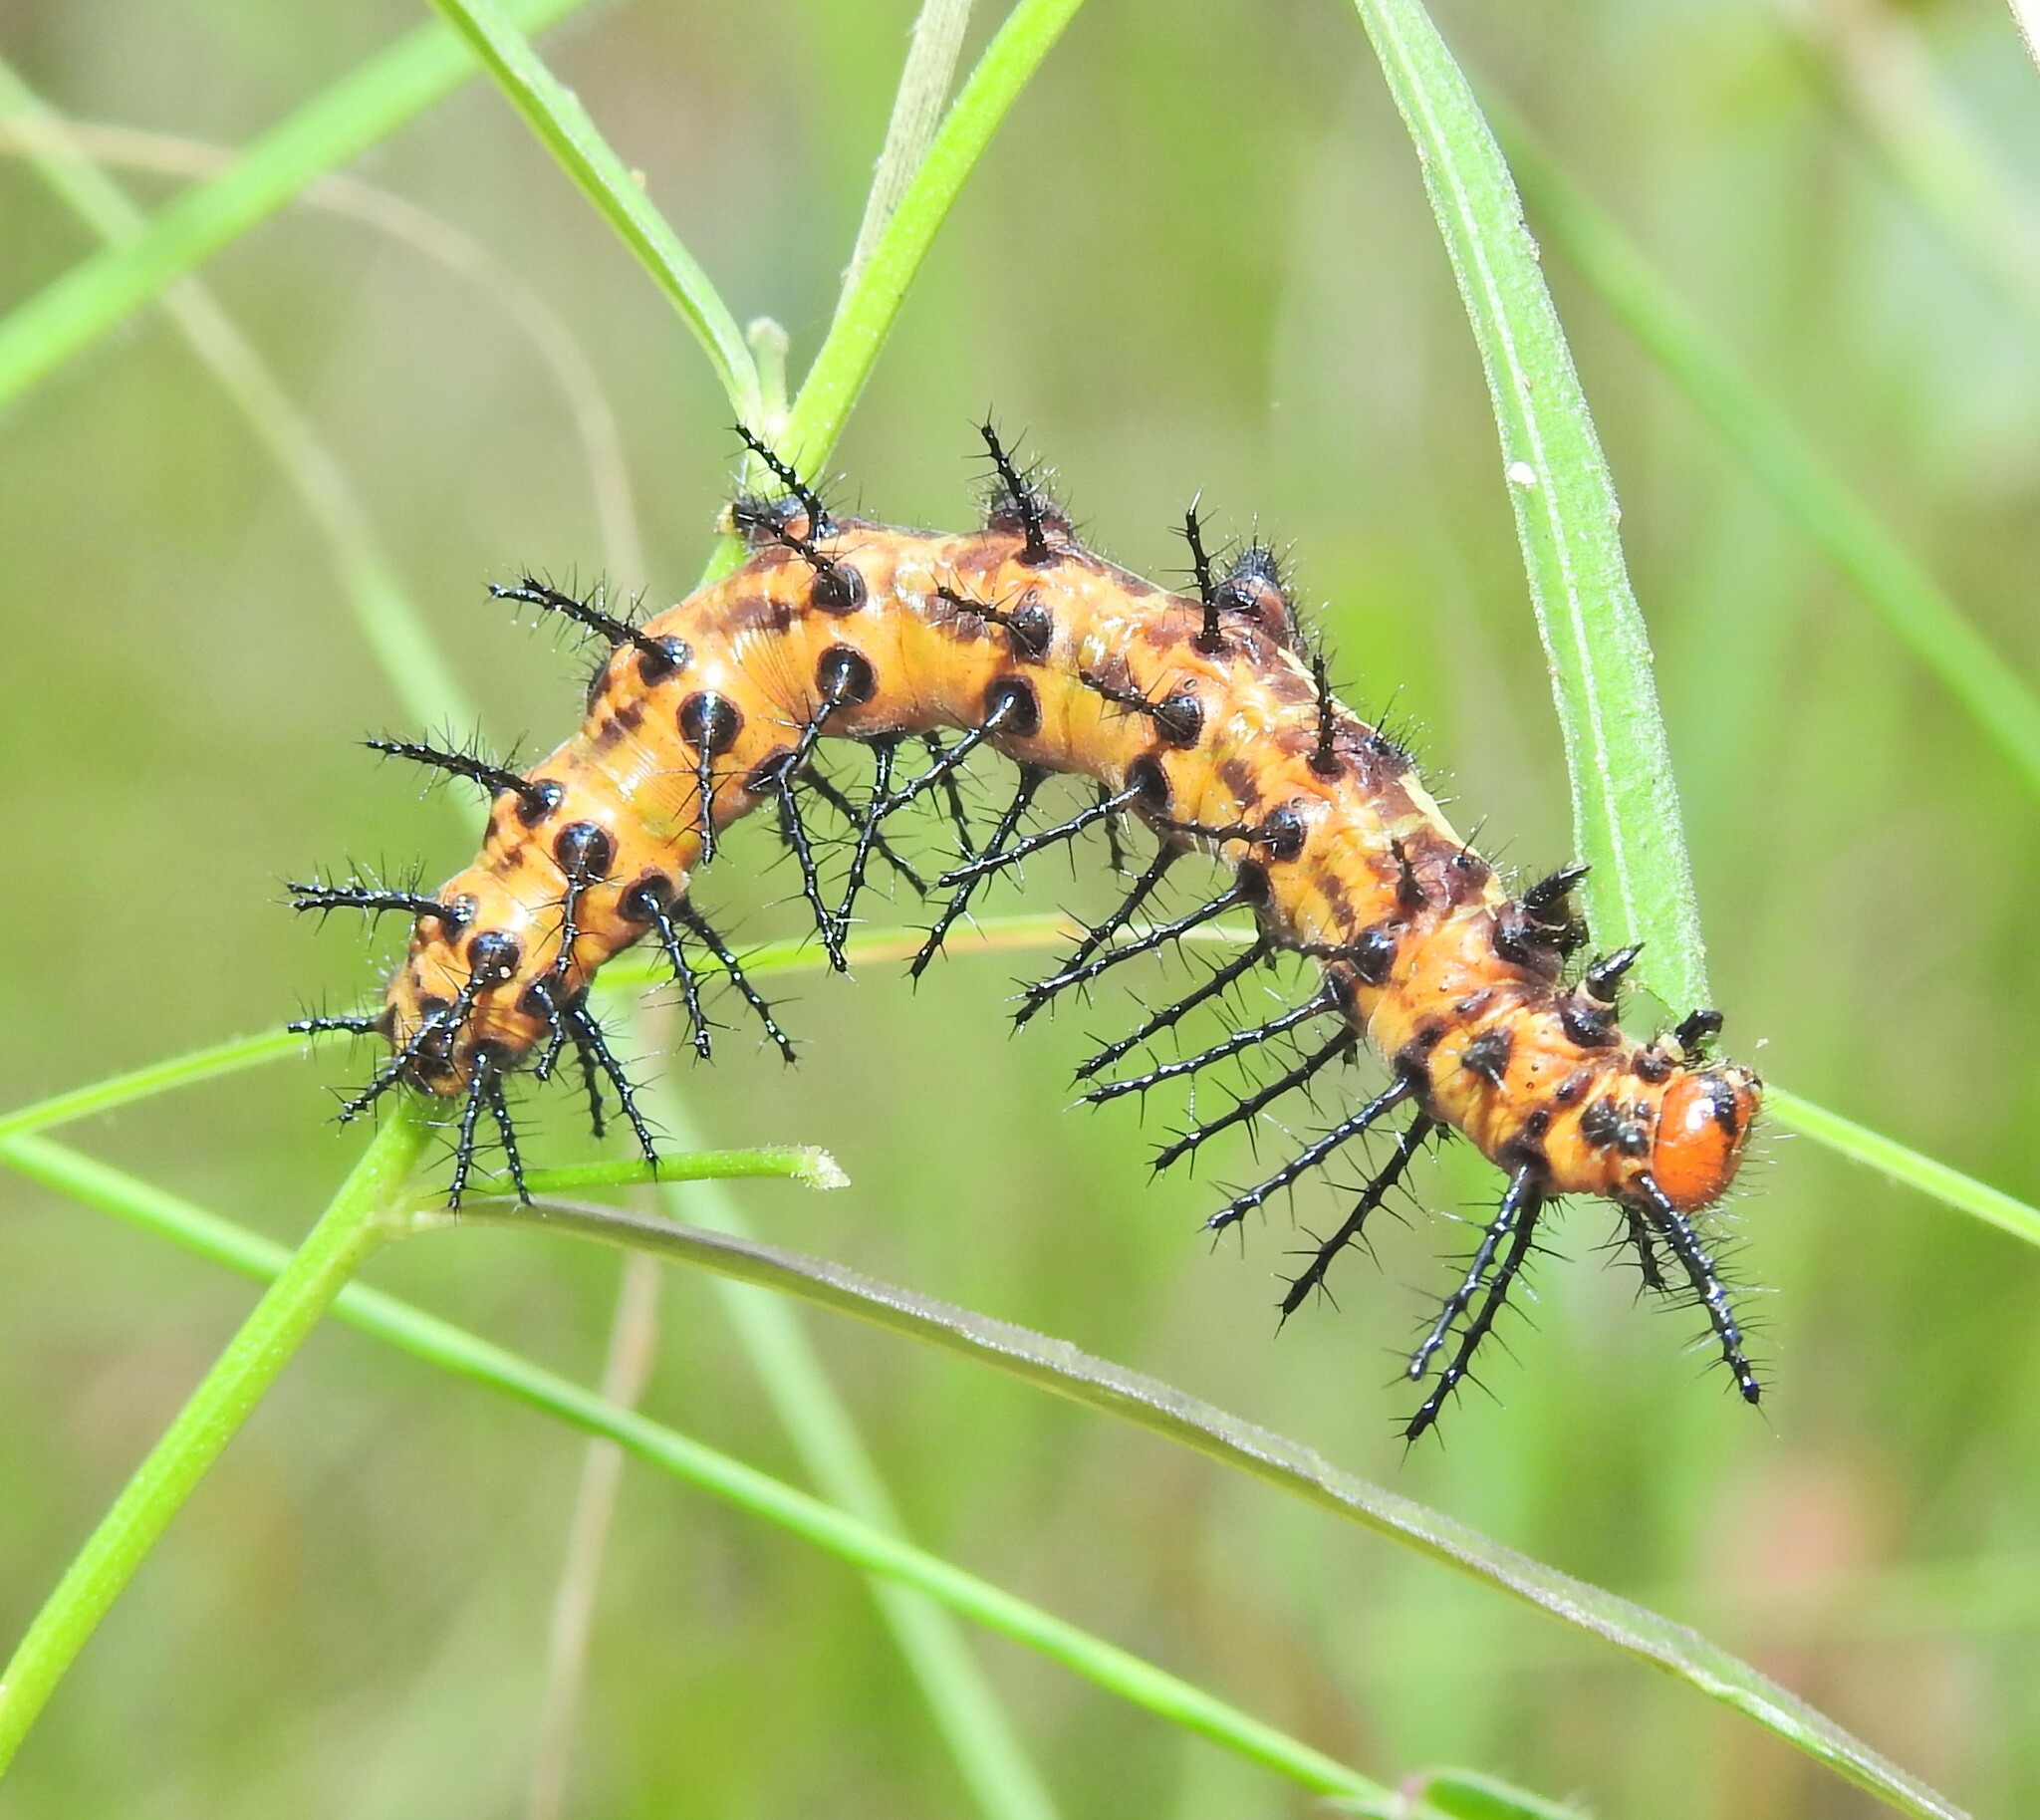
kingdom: Animalia
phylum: Arthropoda
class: Insecta
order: Lepidoptera
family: Nymphalidae
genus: Acraea
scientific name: Acraea andromacha
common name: Glasswing
